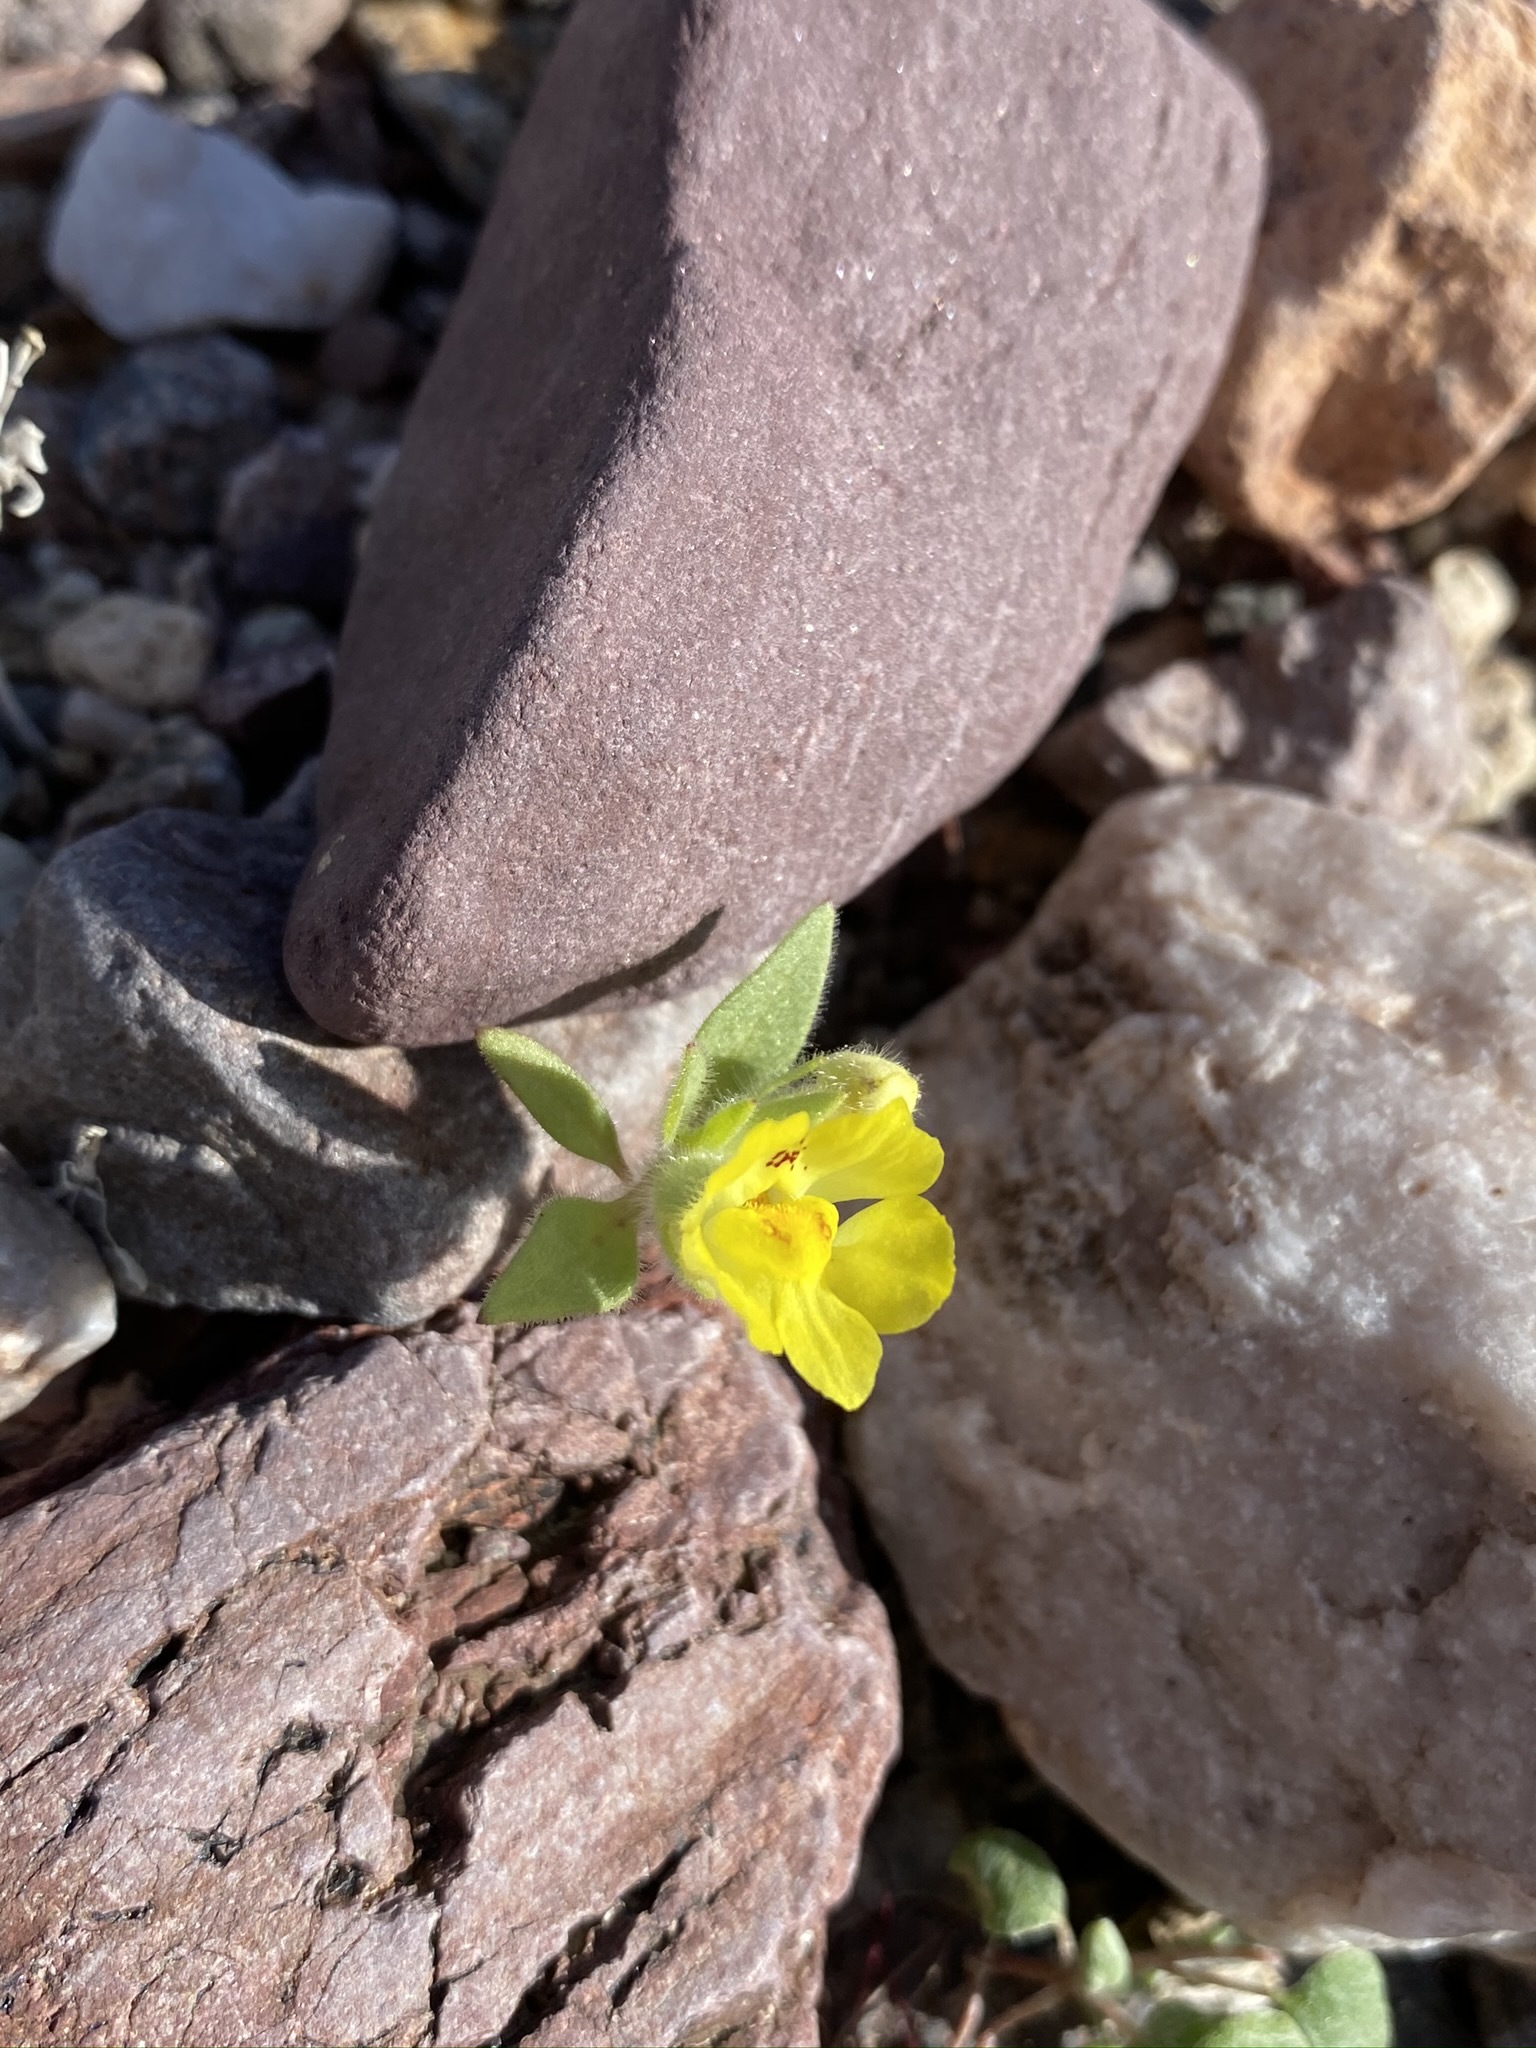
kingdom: Plantae
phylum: Tracheophyta
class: Magnoliopsida
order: Lamiales
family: Plantaginaceae
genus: Mohavea
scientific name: Mohavea breviflora
